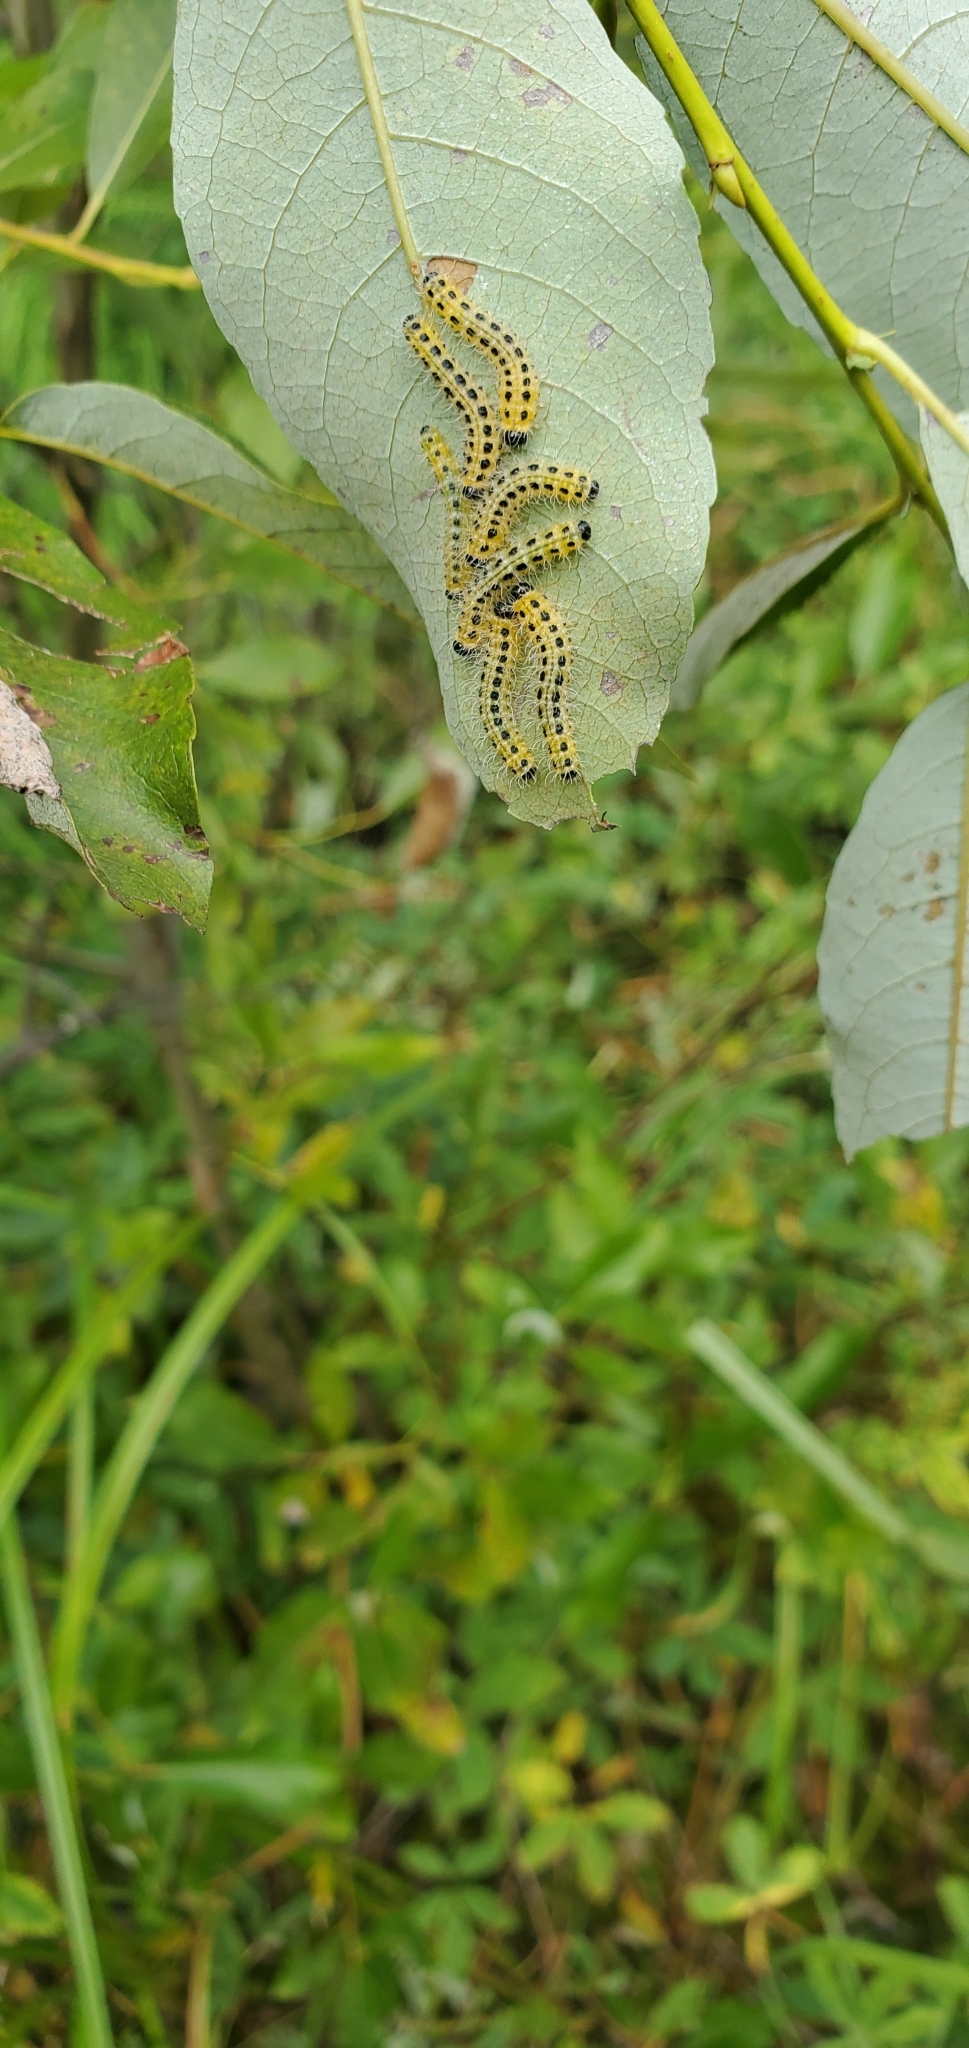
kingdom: Animalia
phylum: Arthropoda
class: Insecta
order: Hymenoptera
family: Tenthredinidae
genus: Cladius
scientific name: Cladius grandis
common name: Common sawfly
